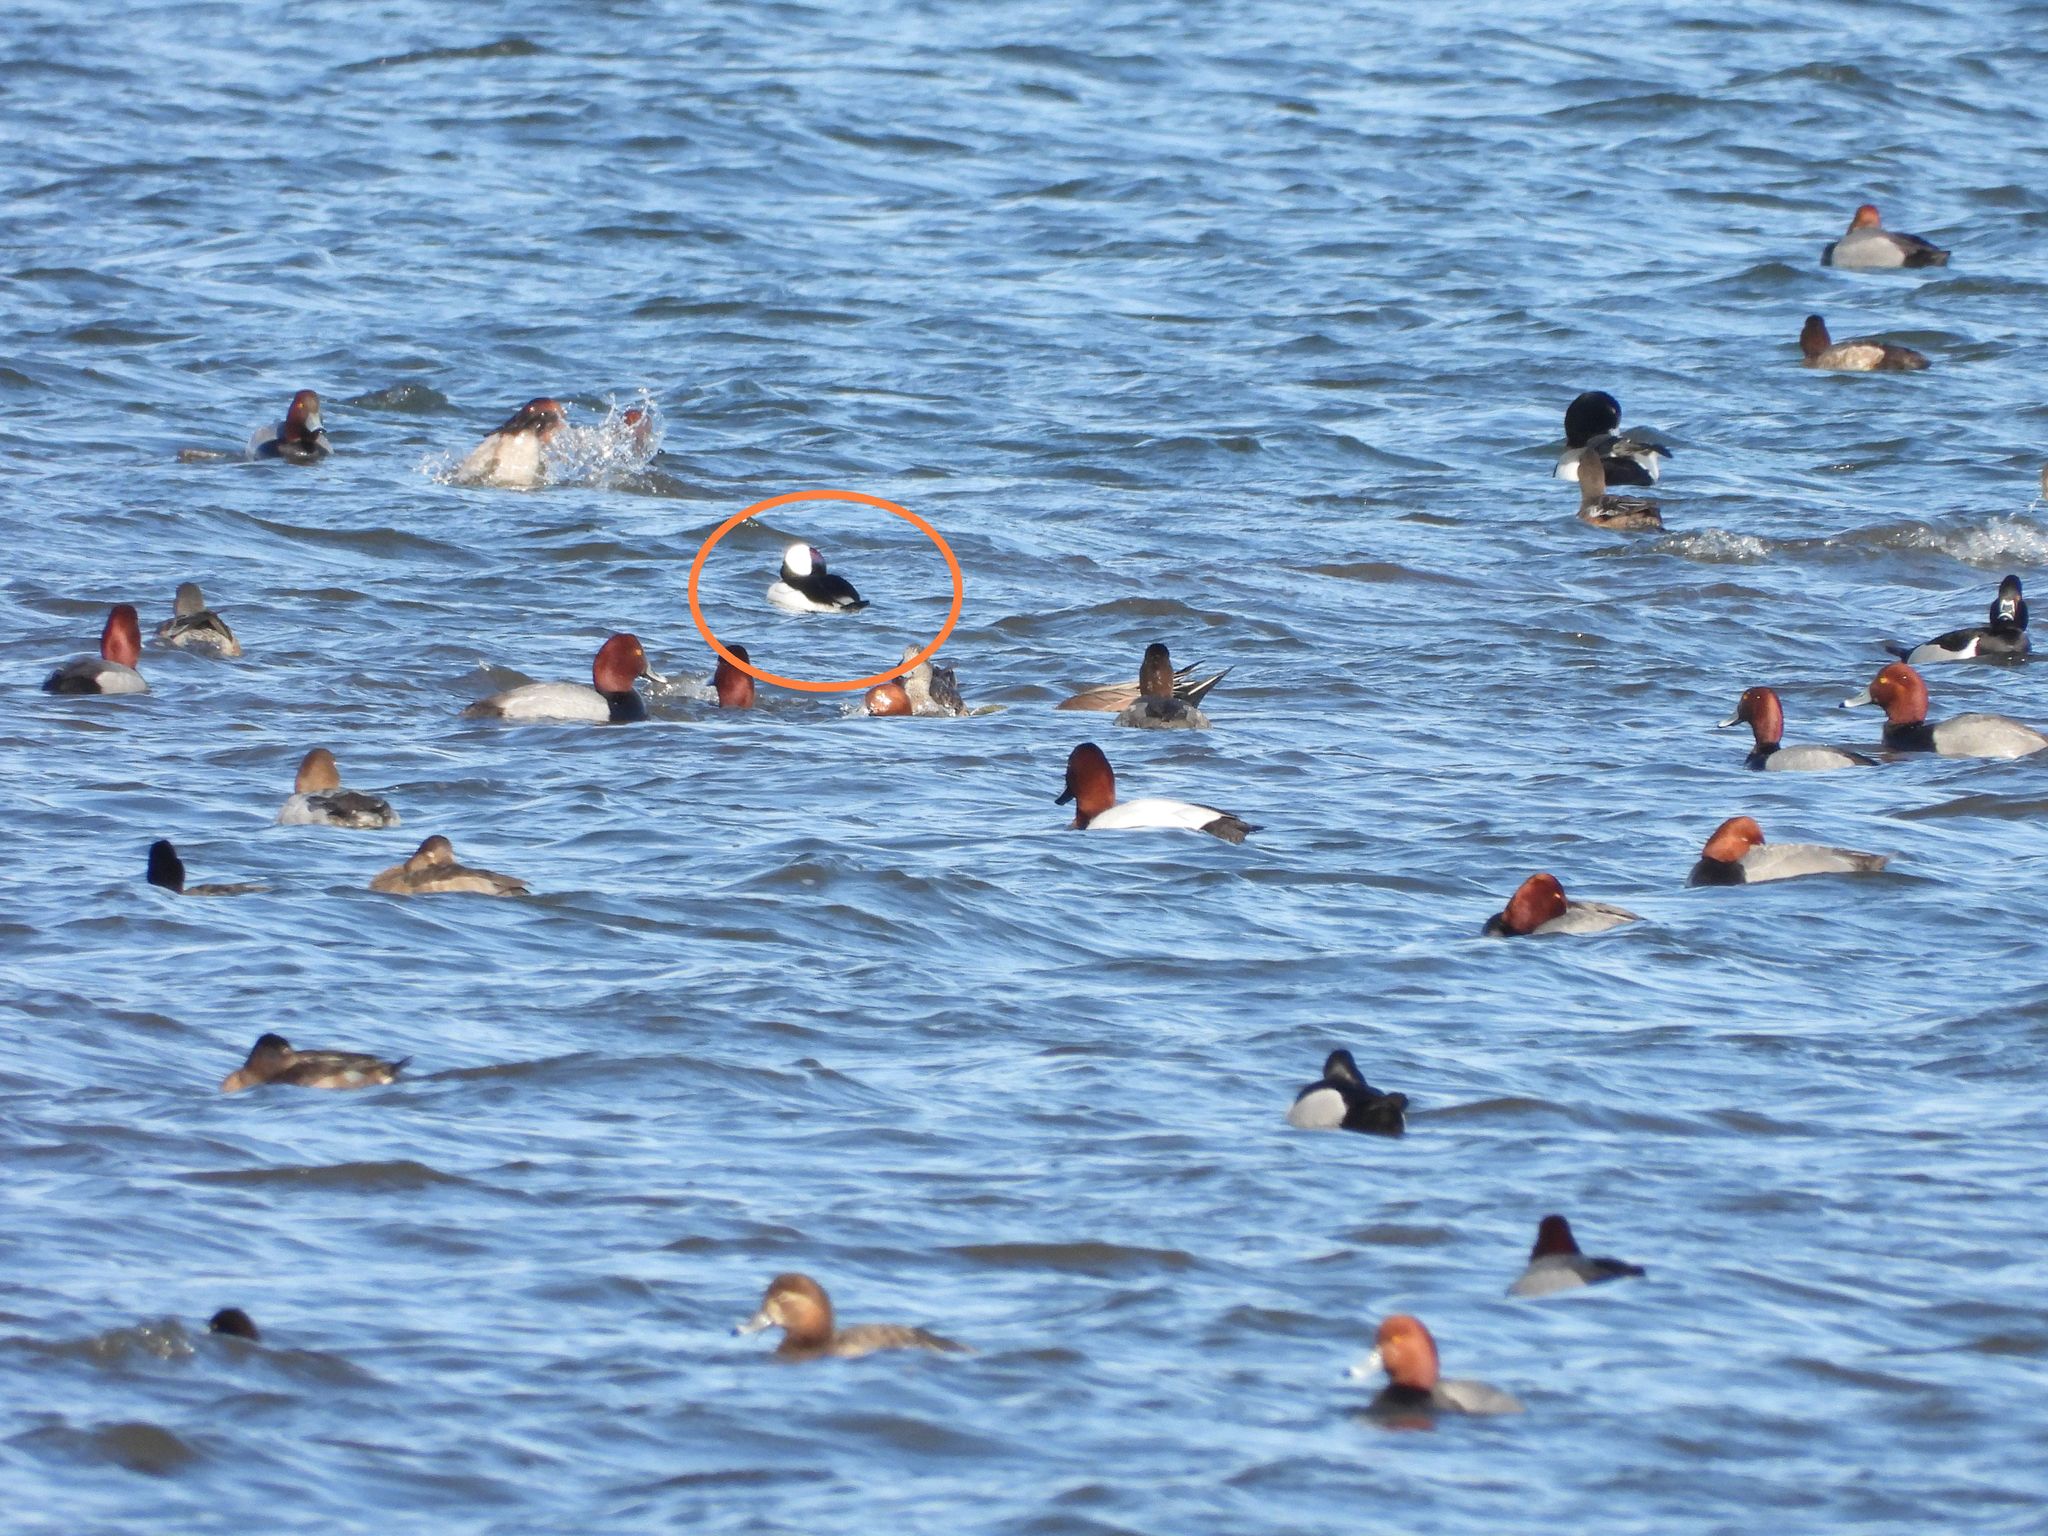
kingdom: Animalia
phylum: Chordata
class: Aves
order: Anseriformes
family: Anatidae
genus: Bucephala
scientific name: Bucephala albeola
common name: Bufflehead
